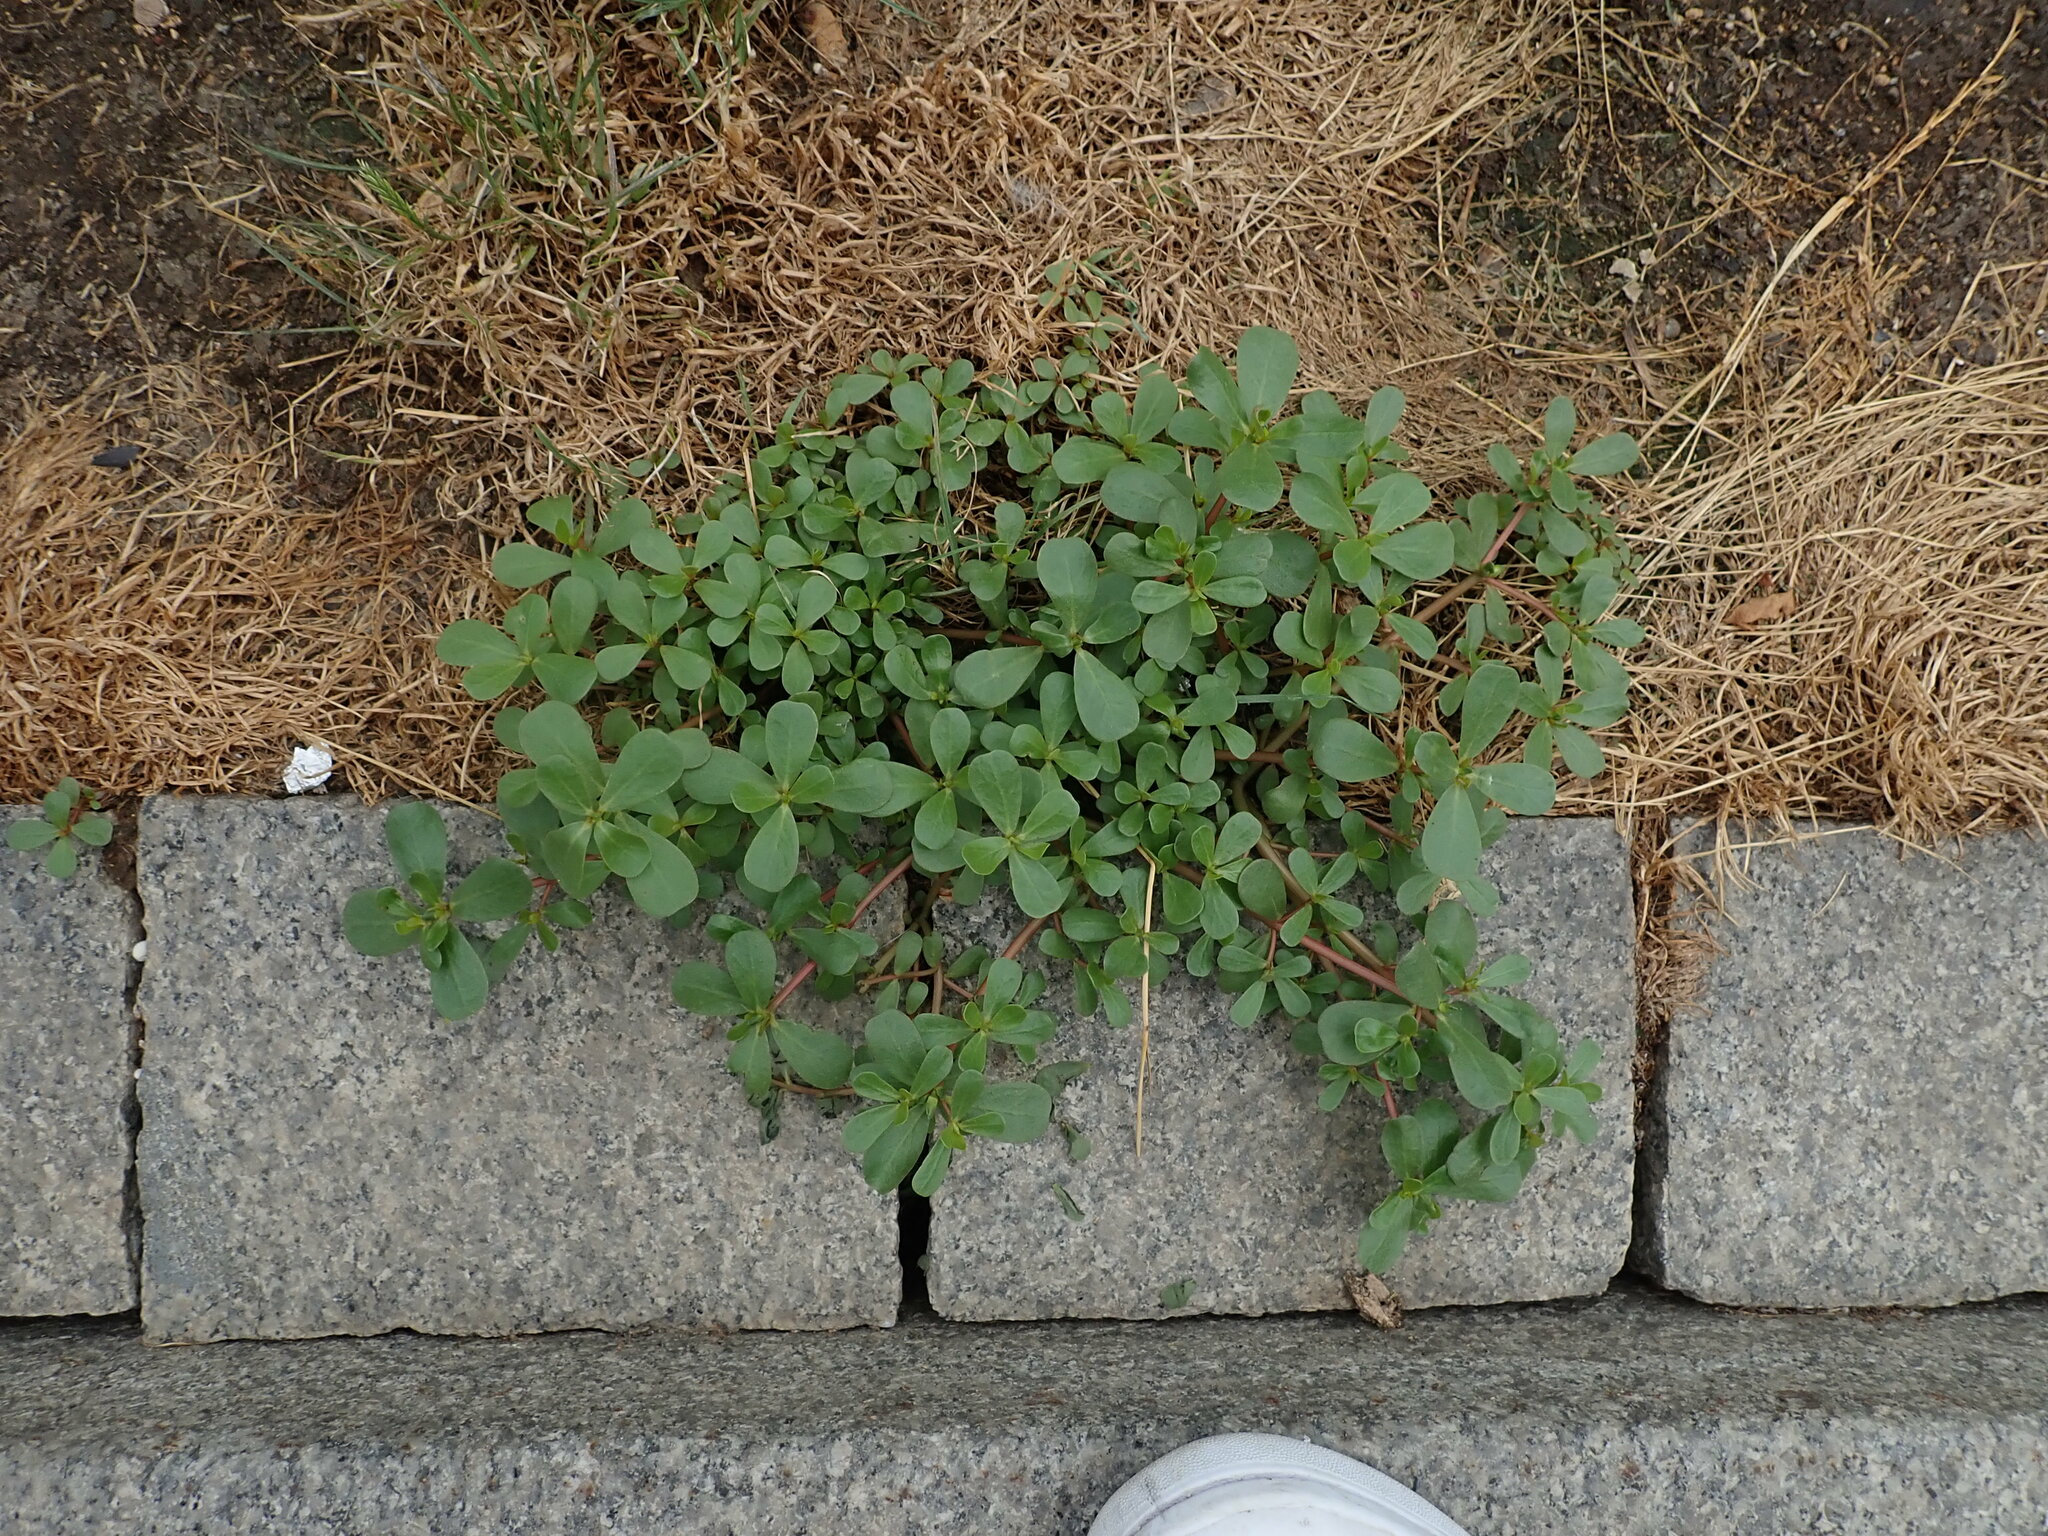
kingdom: Plantae
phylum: Tracheophyta
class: Magnoliopsida
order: Caryophyllales
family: Portulacaceae
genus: Portulaca
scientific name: Portulaca oleracea
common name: Common purslane
